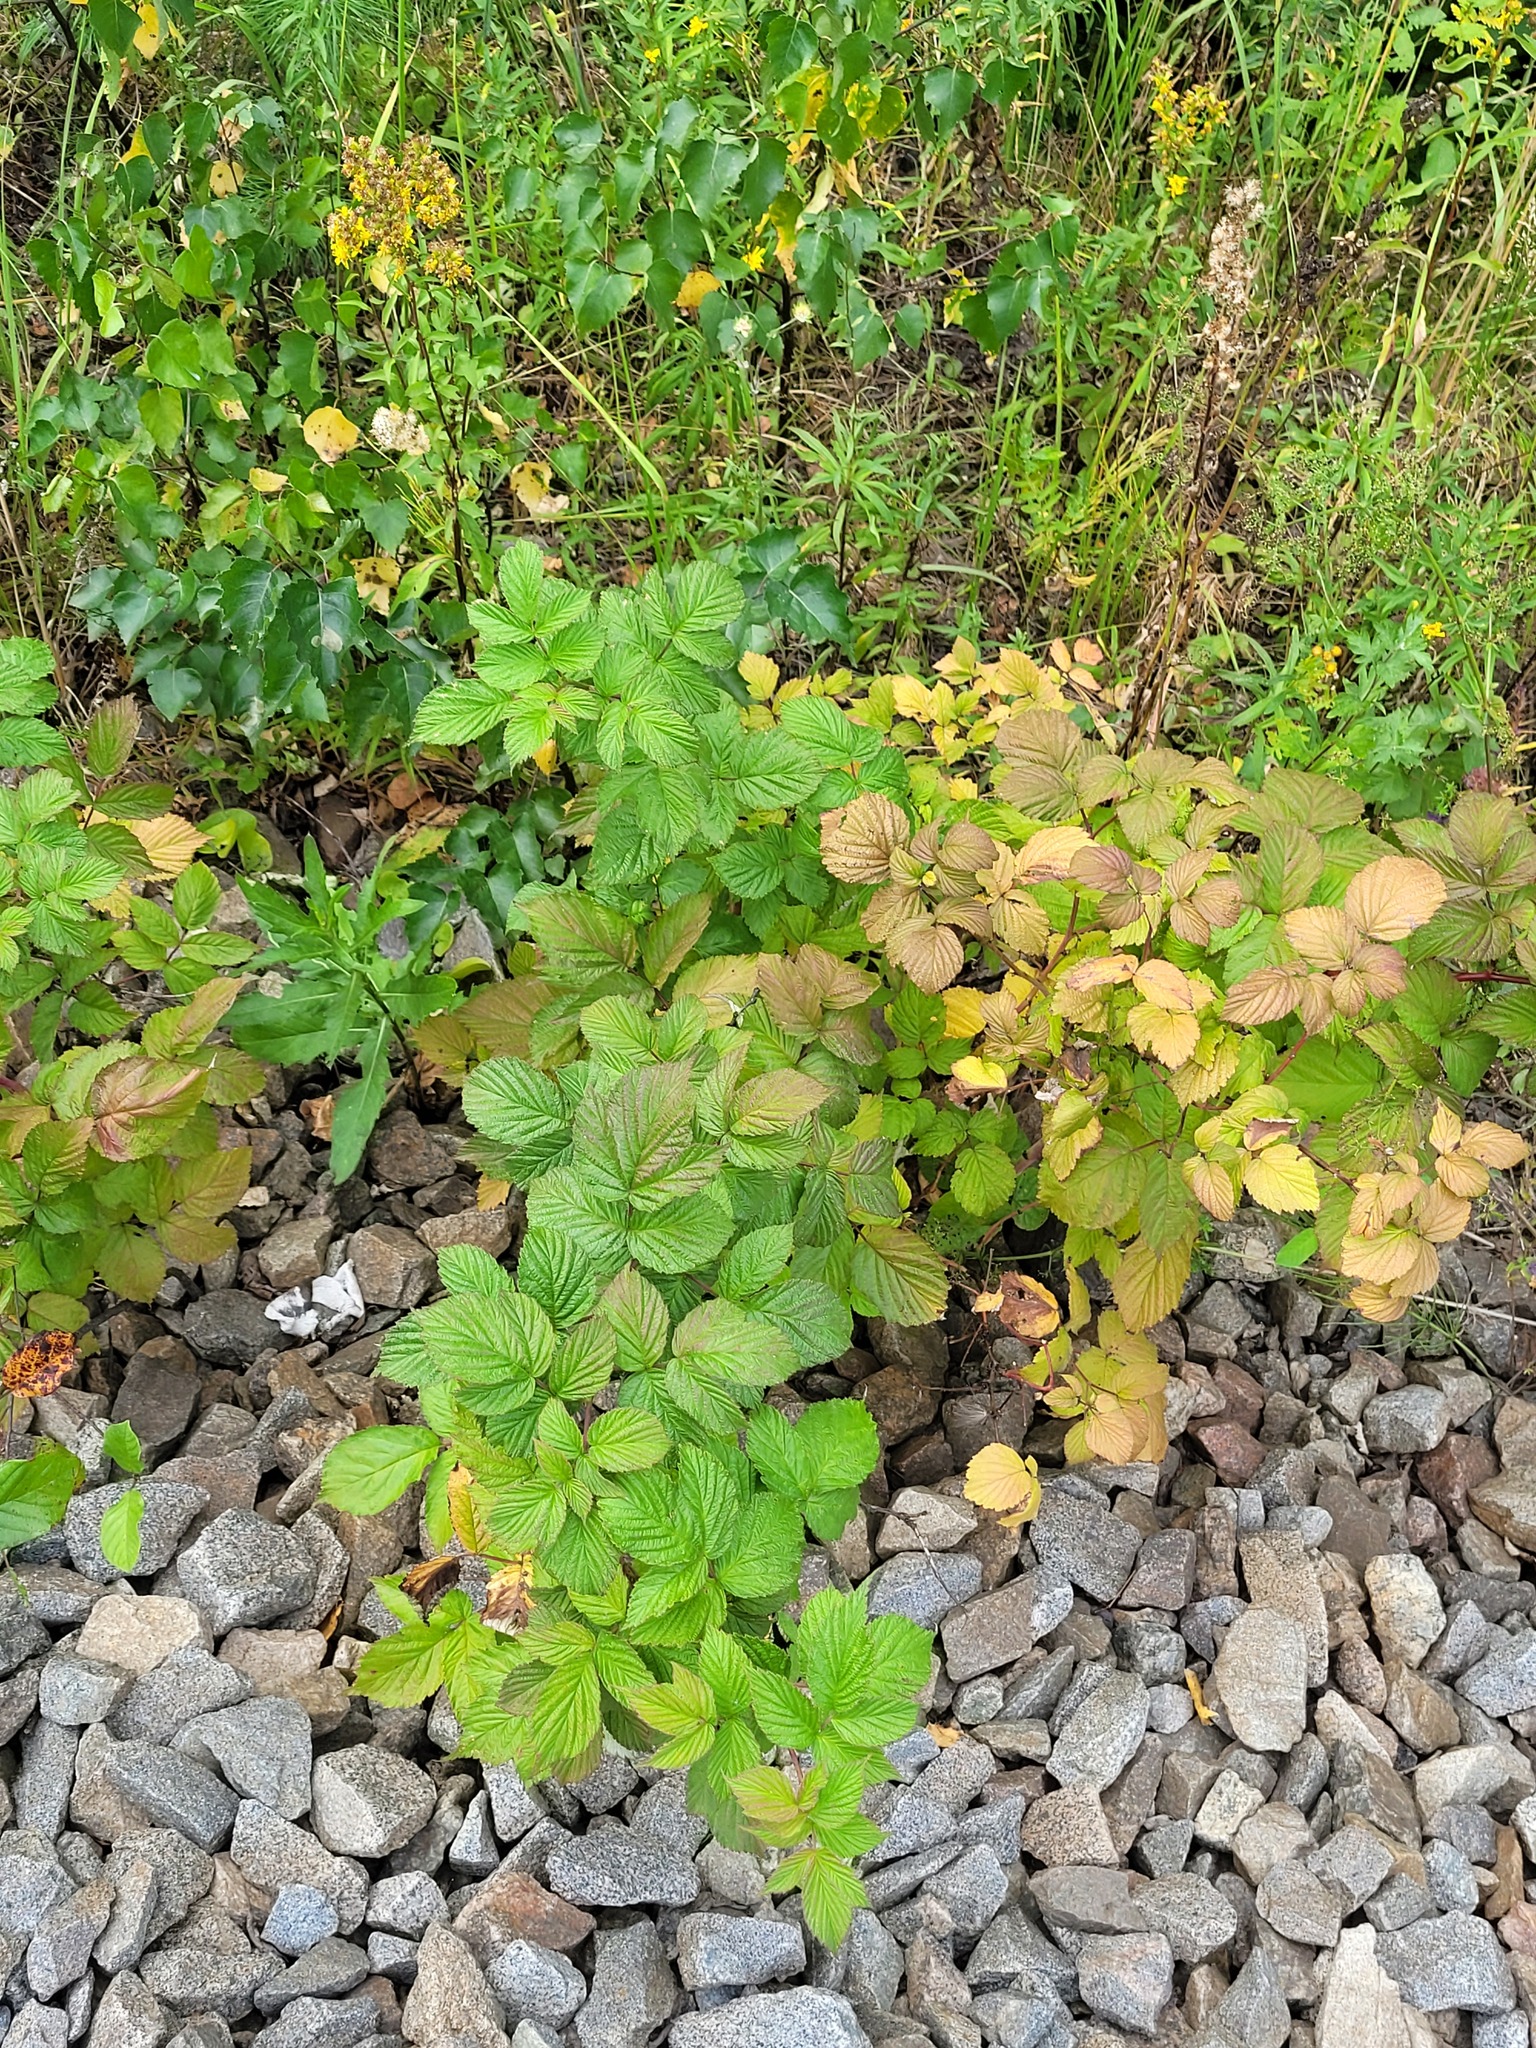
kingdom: Plantae
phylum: Tracheophyta
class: Magnoliopsida
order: Rosales
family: Rosaceae
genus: Rubus
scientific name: Rubus idaeus
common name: Raspberry
